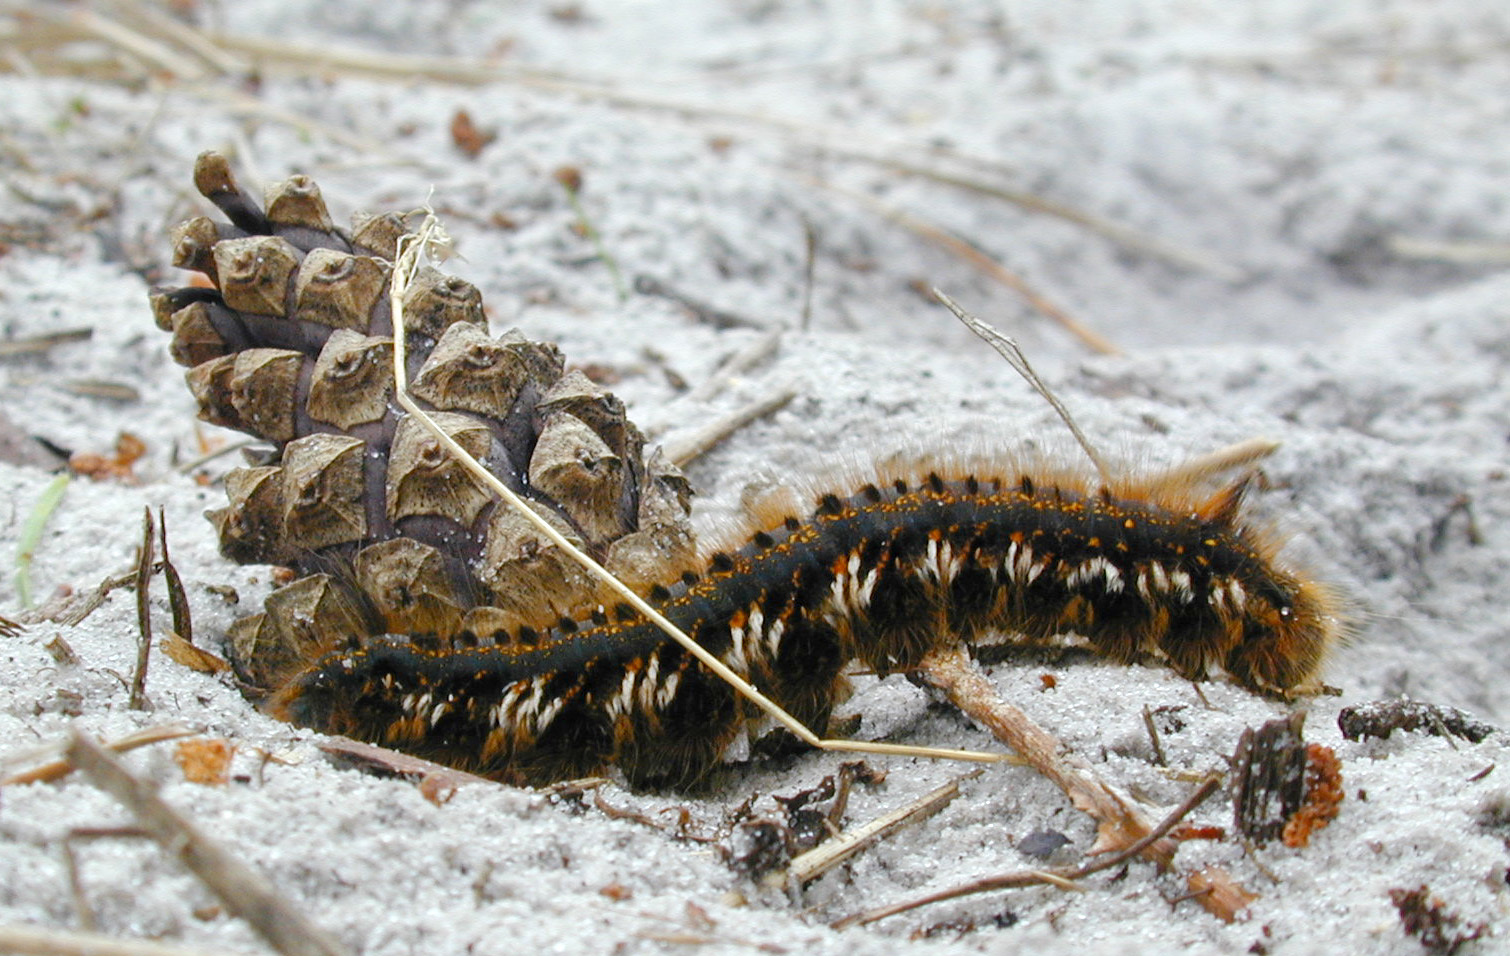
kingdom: Animalia
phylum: Arthropoda
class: Insecta
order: Lepidoptera
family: Lasiocampidae
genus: Euthrix
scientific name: Euthrix potatoria
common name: Drinker
